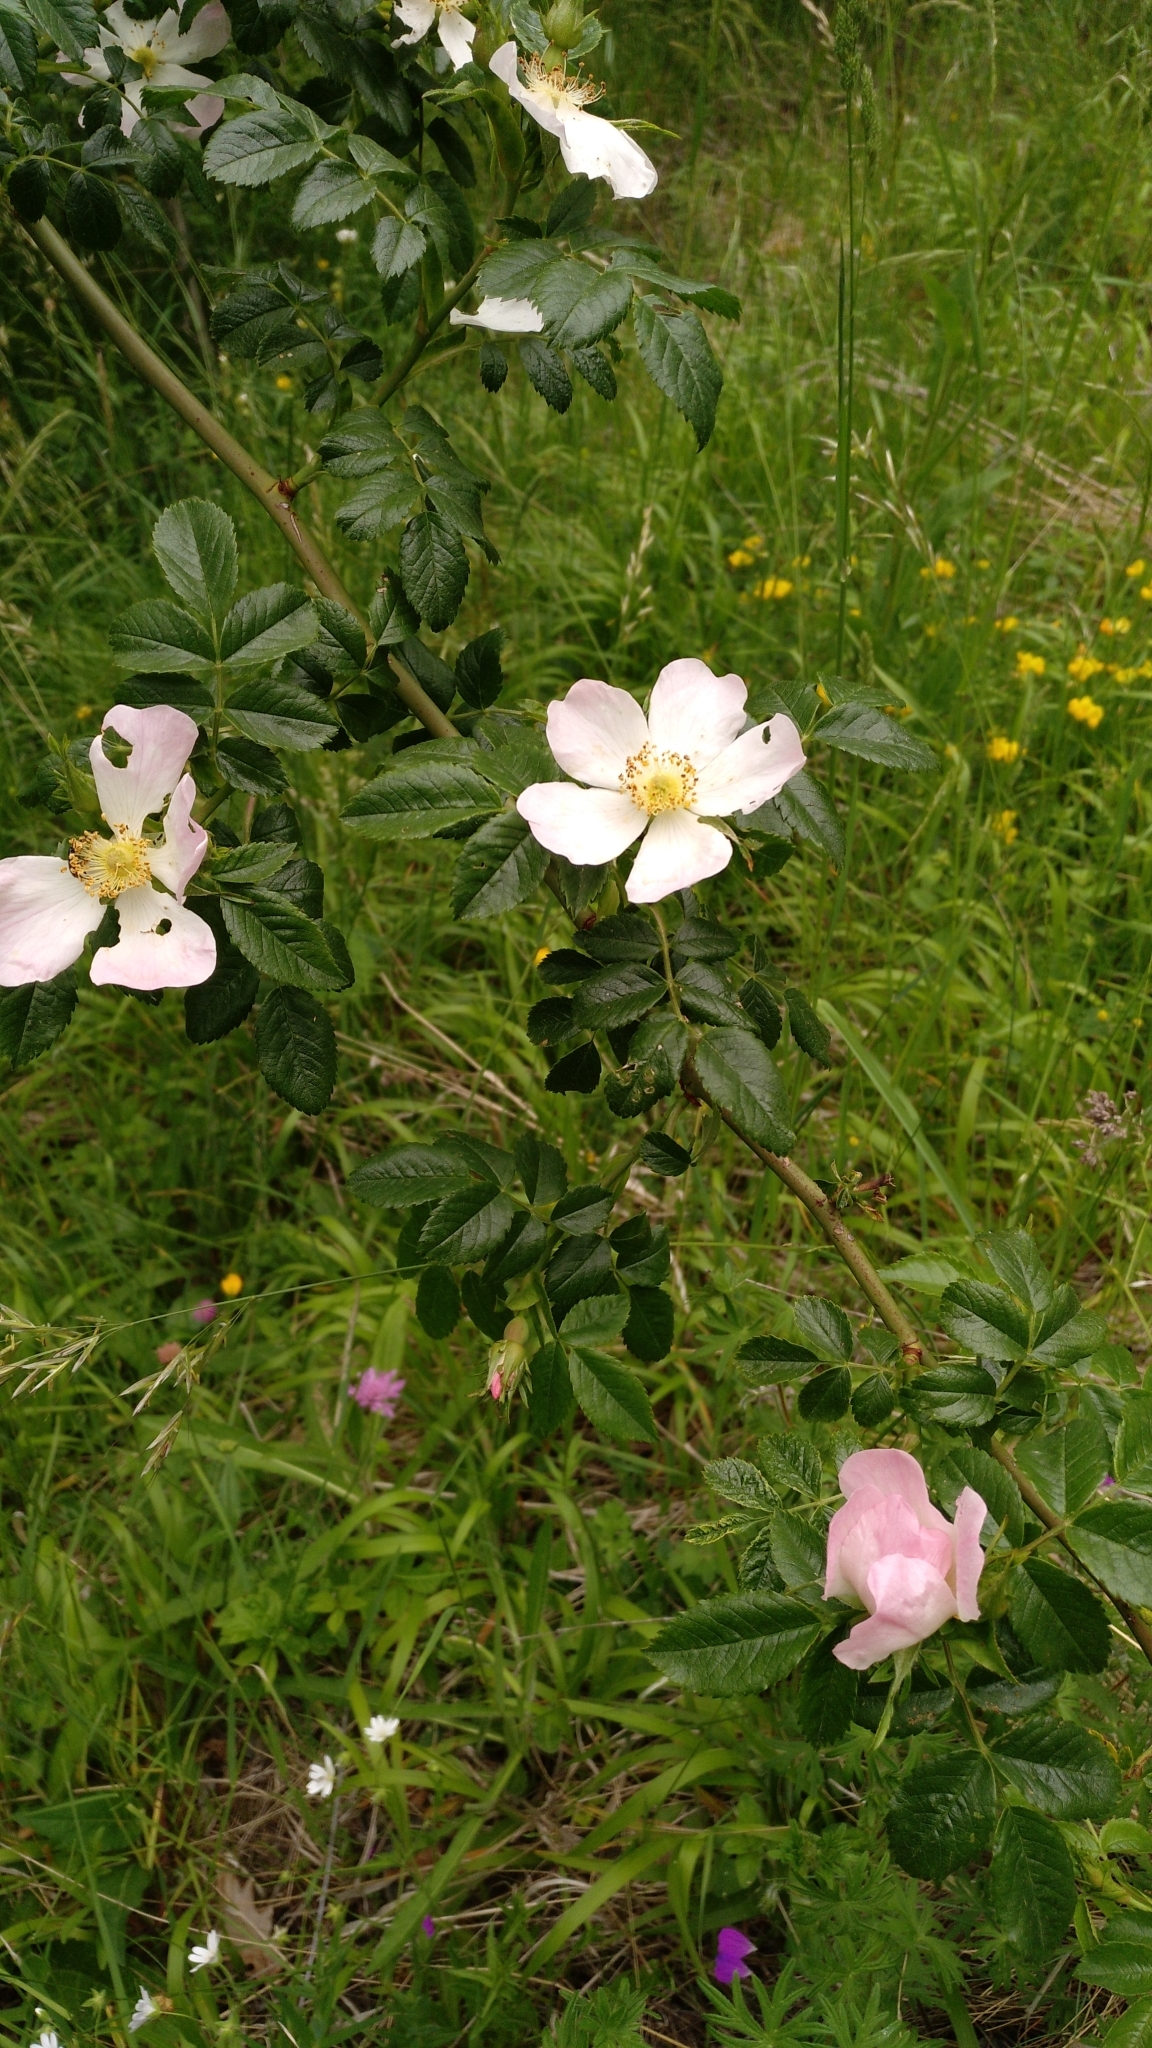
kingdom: Plantae
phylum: Tracheophyta
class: Magnoliopsida
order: Rosales
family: Rosaceae
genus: Rosa
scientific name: Rosa canina
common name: Dog rose
